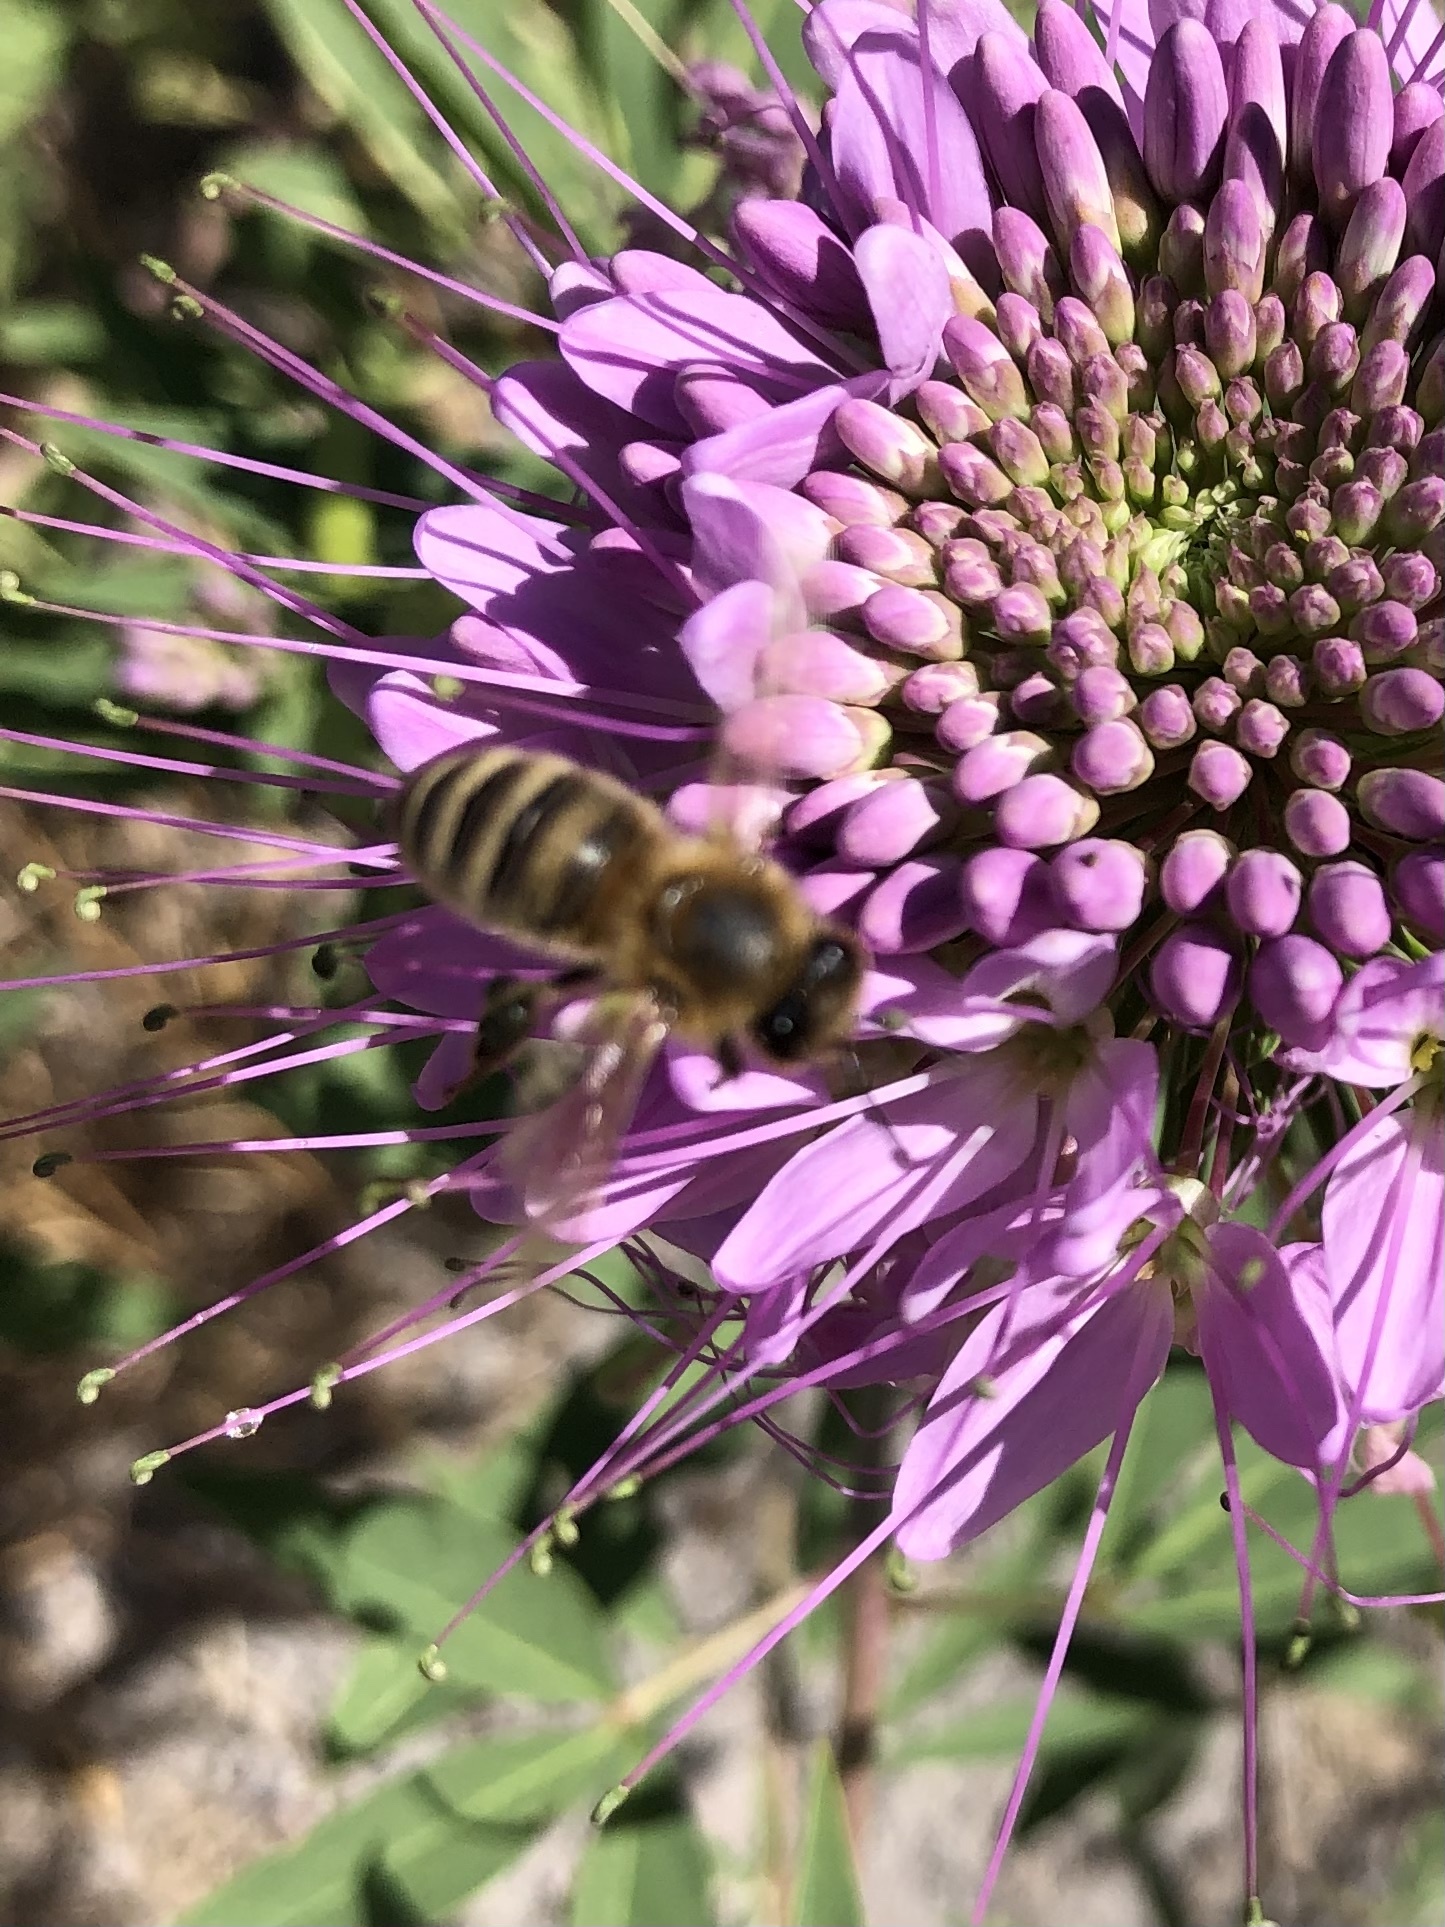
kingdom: Animalia
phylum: Arthropoda
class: Insecta
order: Hymenoptera
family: Apidae
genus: Apis
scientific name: Apis mellifera
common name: Honey bee
